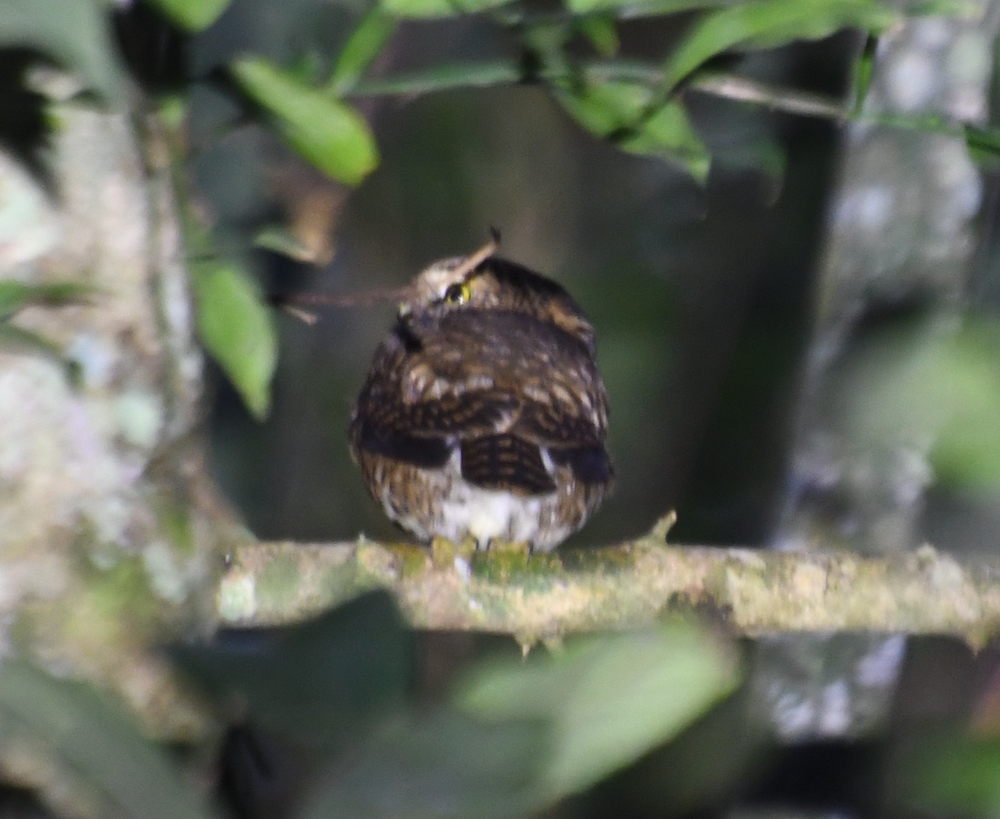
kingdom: Animalia
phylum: Chordata
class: Aves
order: Strigiformes
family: Strigidae
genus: Glaucidium
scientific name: Glaucidium brodiei
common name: Collared owlet
